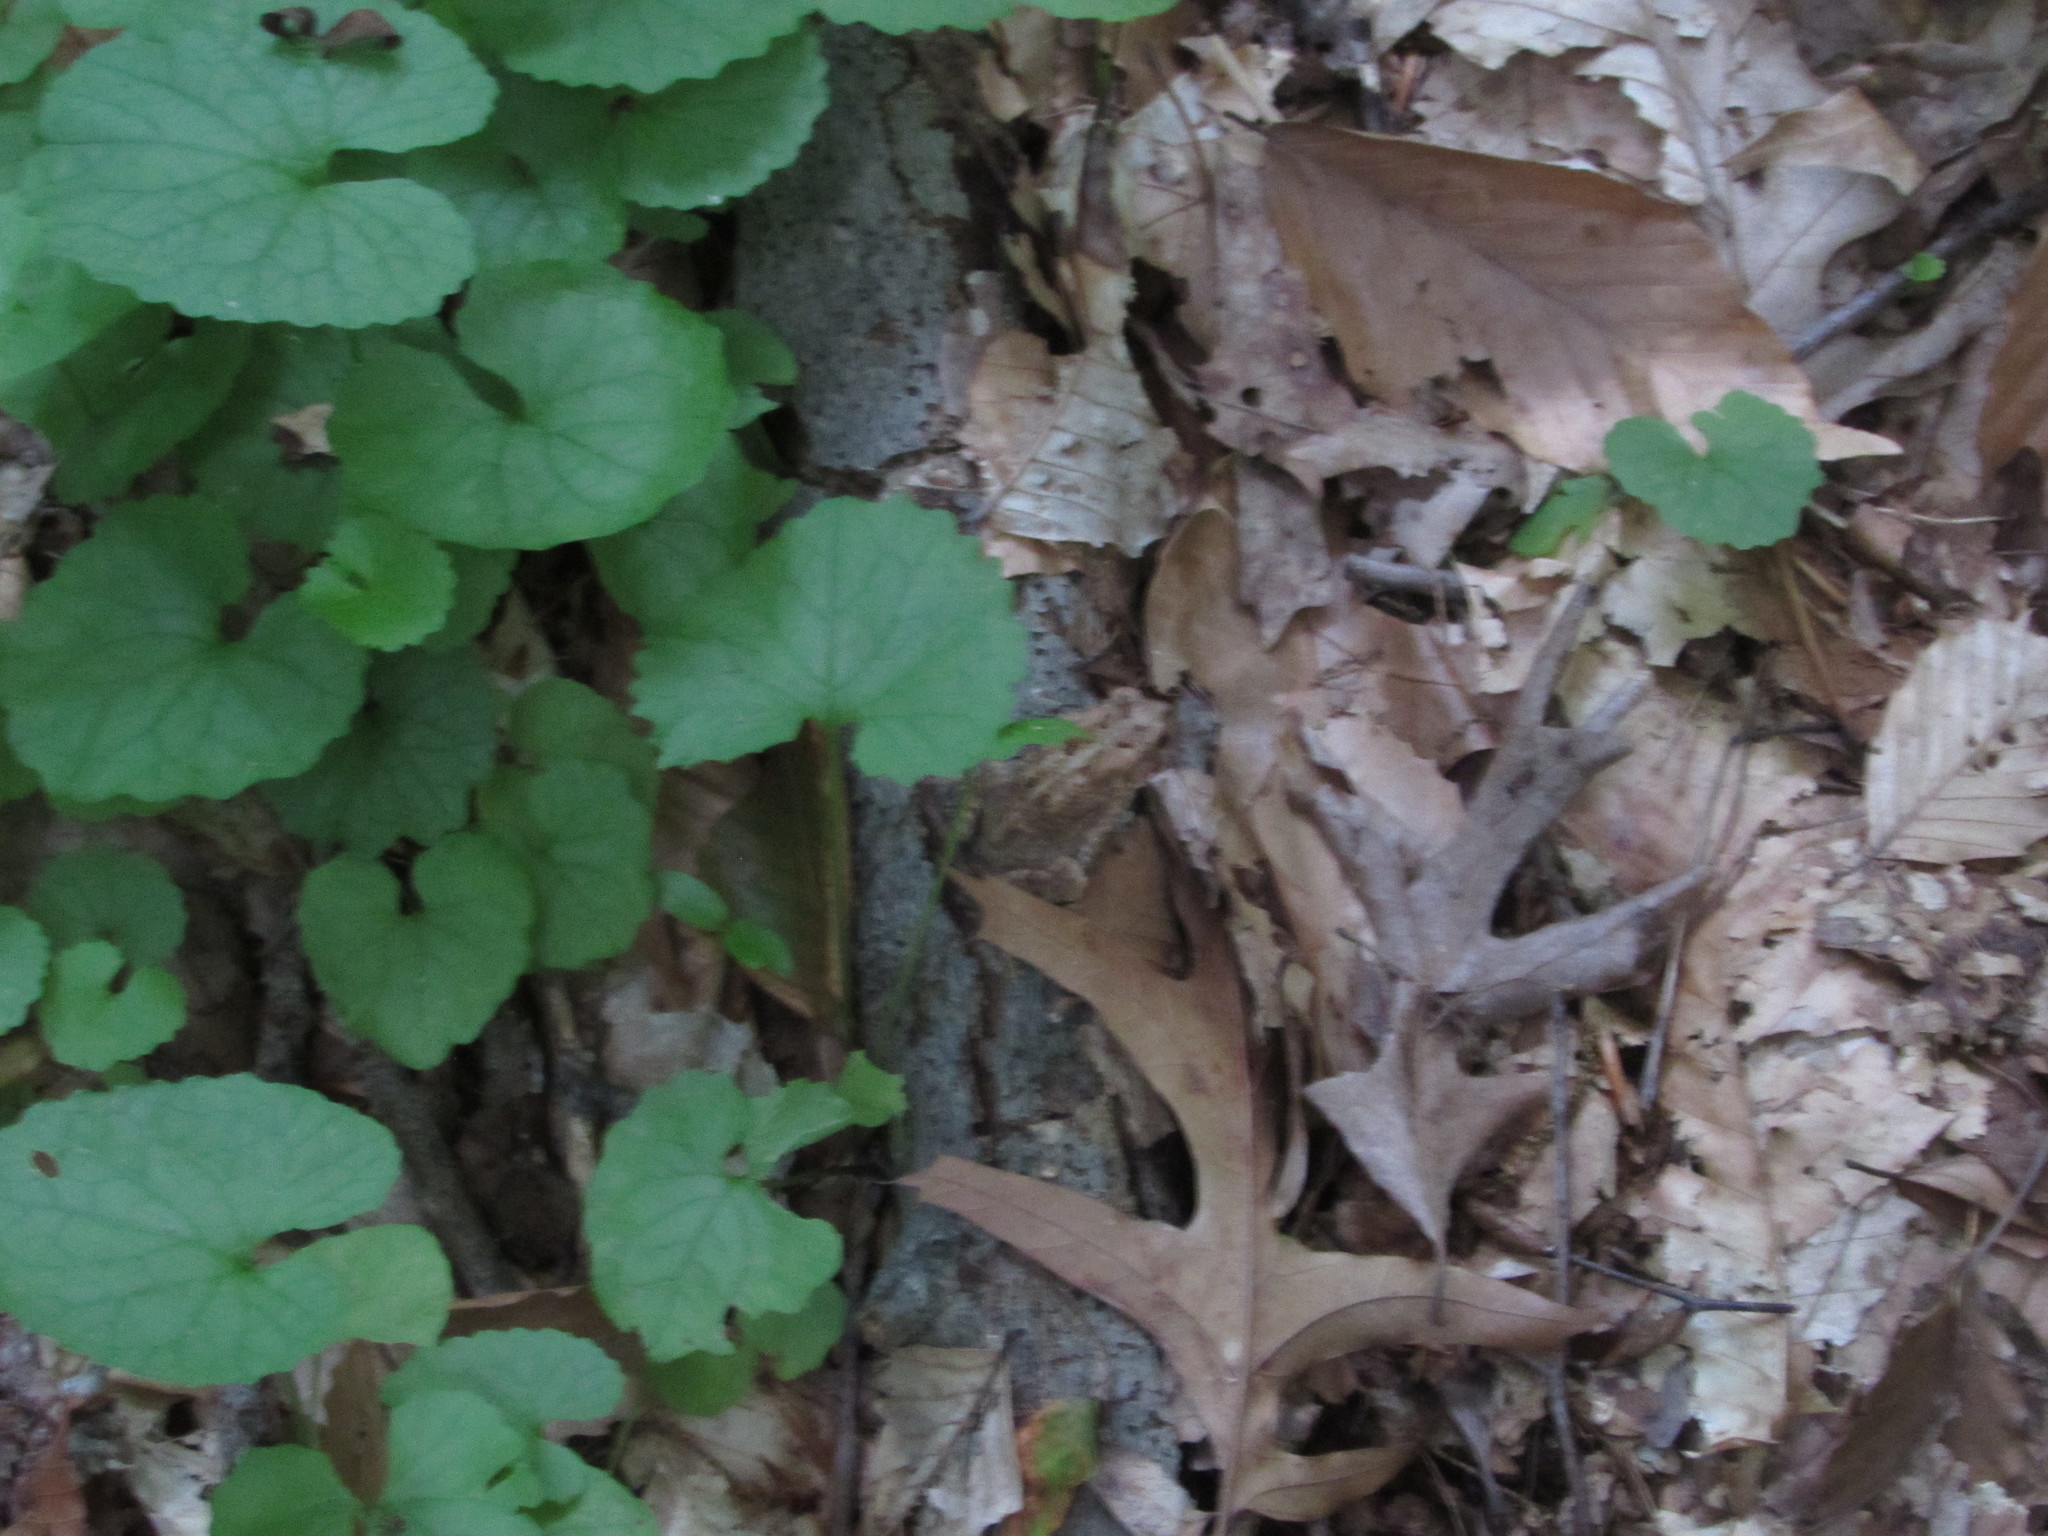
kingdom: Animalia
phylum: Chordata
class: Amphibia
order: Anura
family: Bufonidae
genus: Anaxyrus
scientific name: Anaxyrus americanus
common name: American toad
